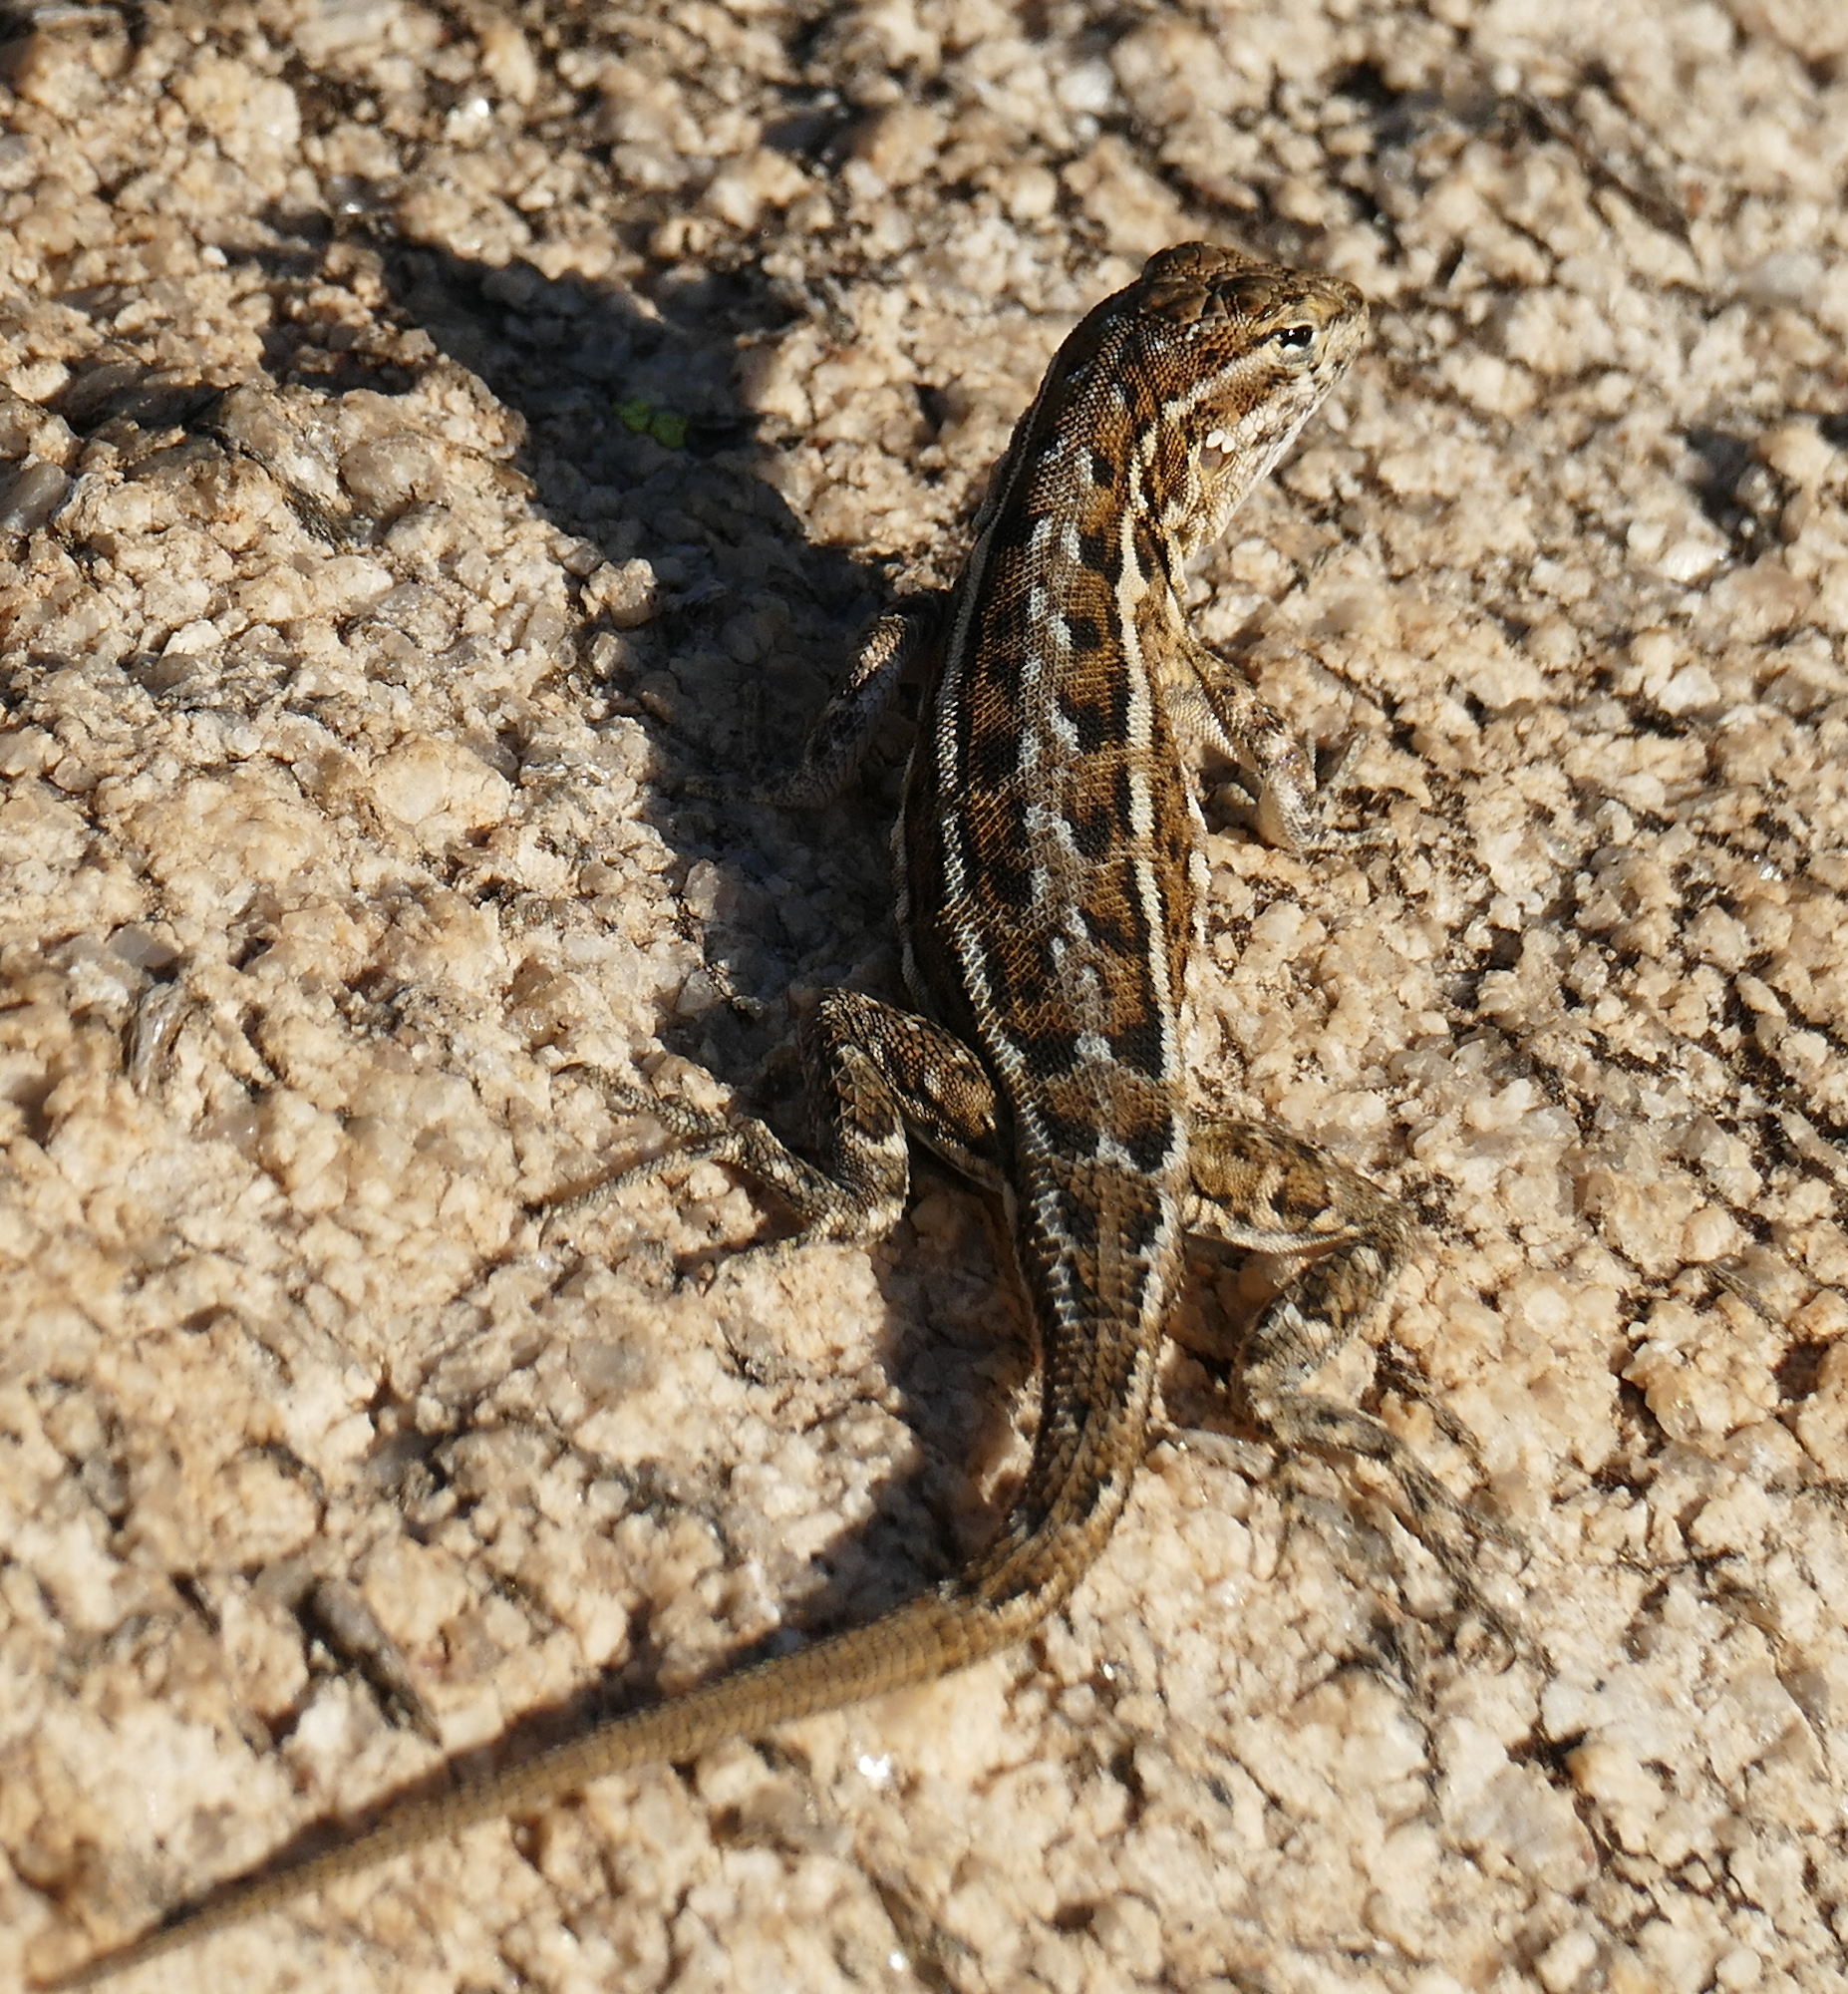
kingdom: Animalia
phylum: Chordata
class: Squamata
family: Phrynosomatidae
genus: Uta
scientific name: Uta stansburiana
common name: Side-blotched lizard
